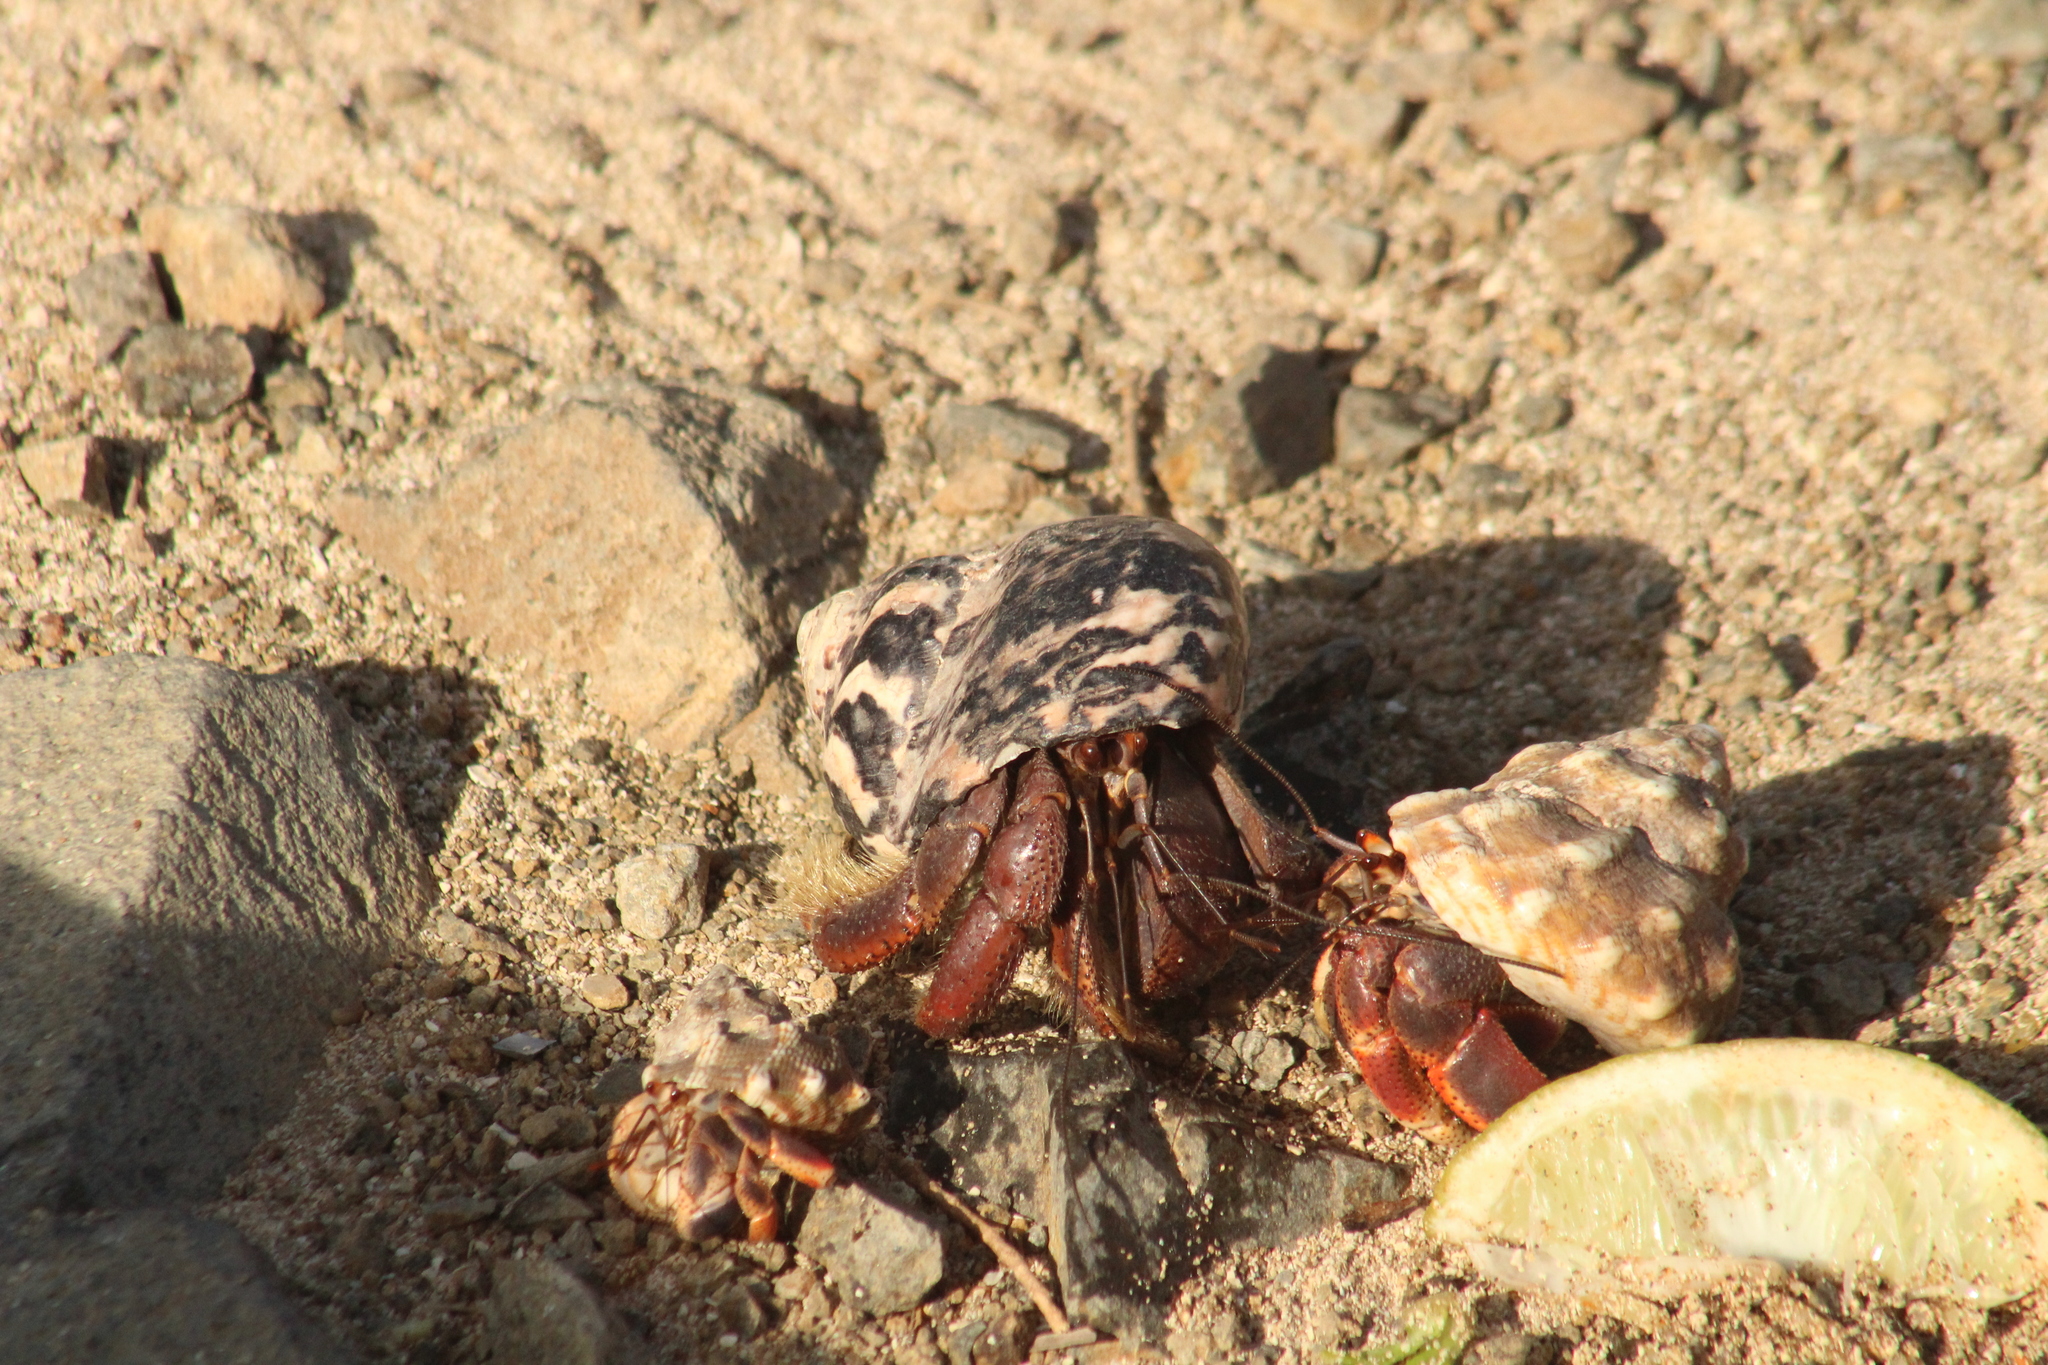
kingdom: Animalia
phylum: Arthropoda
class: Malacostraca
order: Decapoda
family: Coenobitidae
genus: Coenobita
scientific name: Coenobita clypeatus
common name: Caribbean hermit crab
